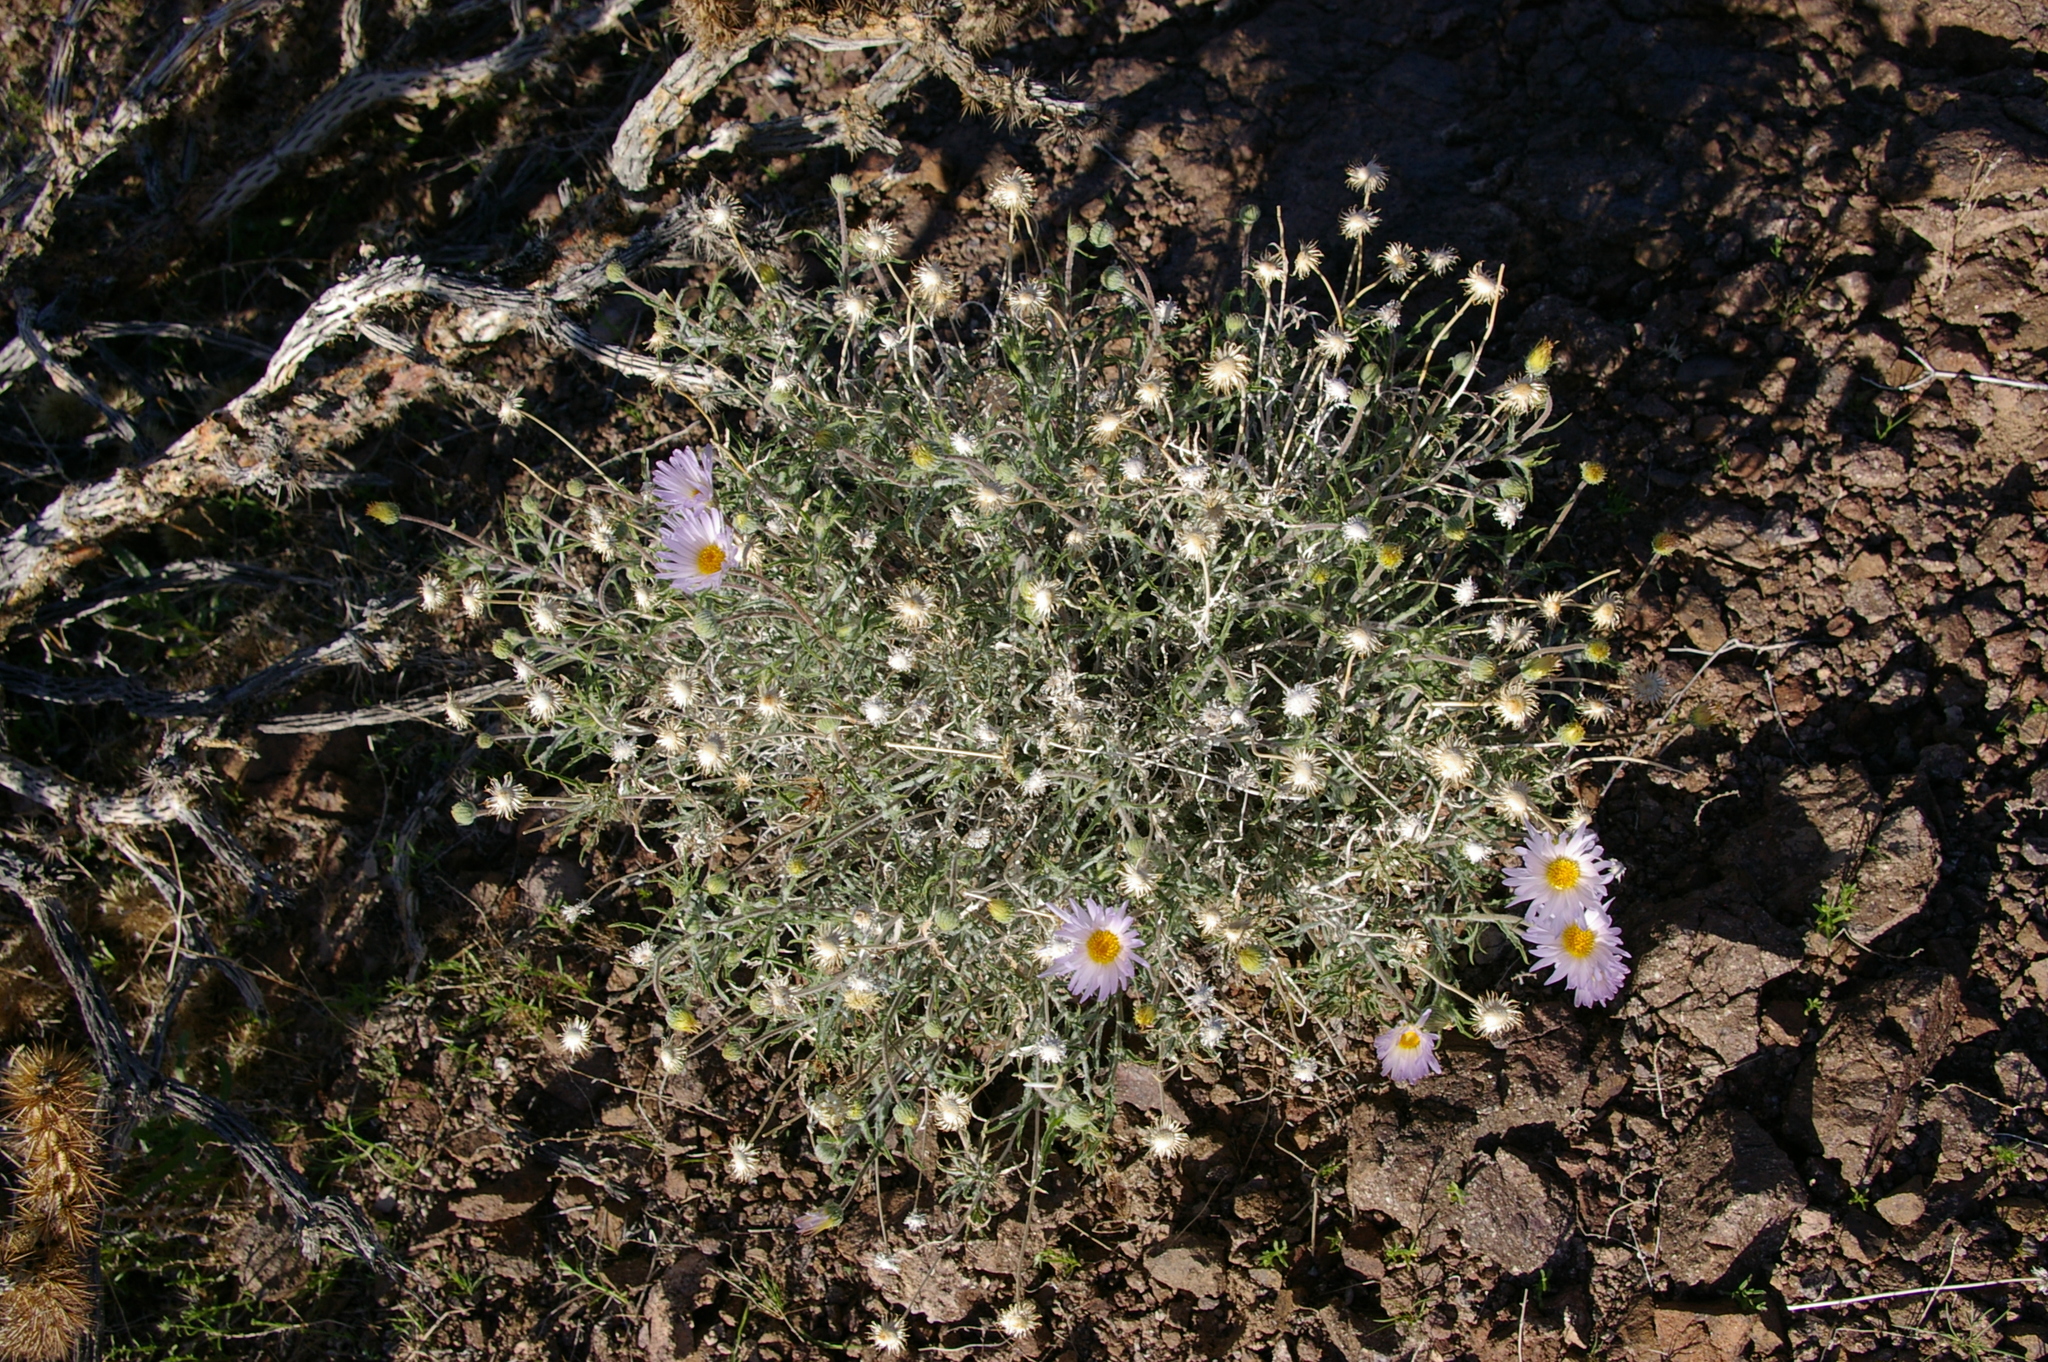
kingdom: Plantae
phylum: Tracheophyta
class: Magnoliopsida
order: Asterales
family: Asteraceae
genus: Xylorhiza
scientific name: Xylorhiza tortifolia
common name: Hurt-leaf woody-aster
